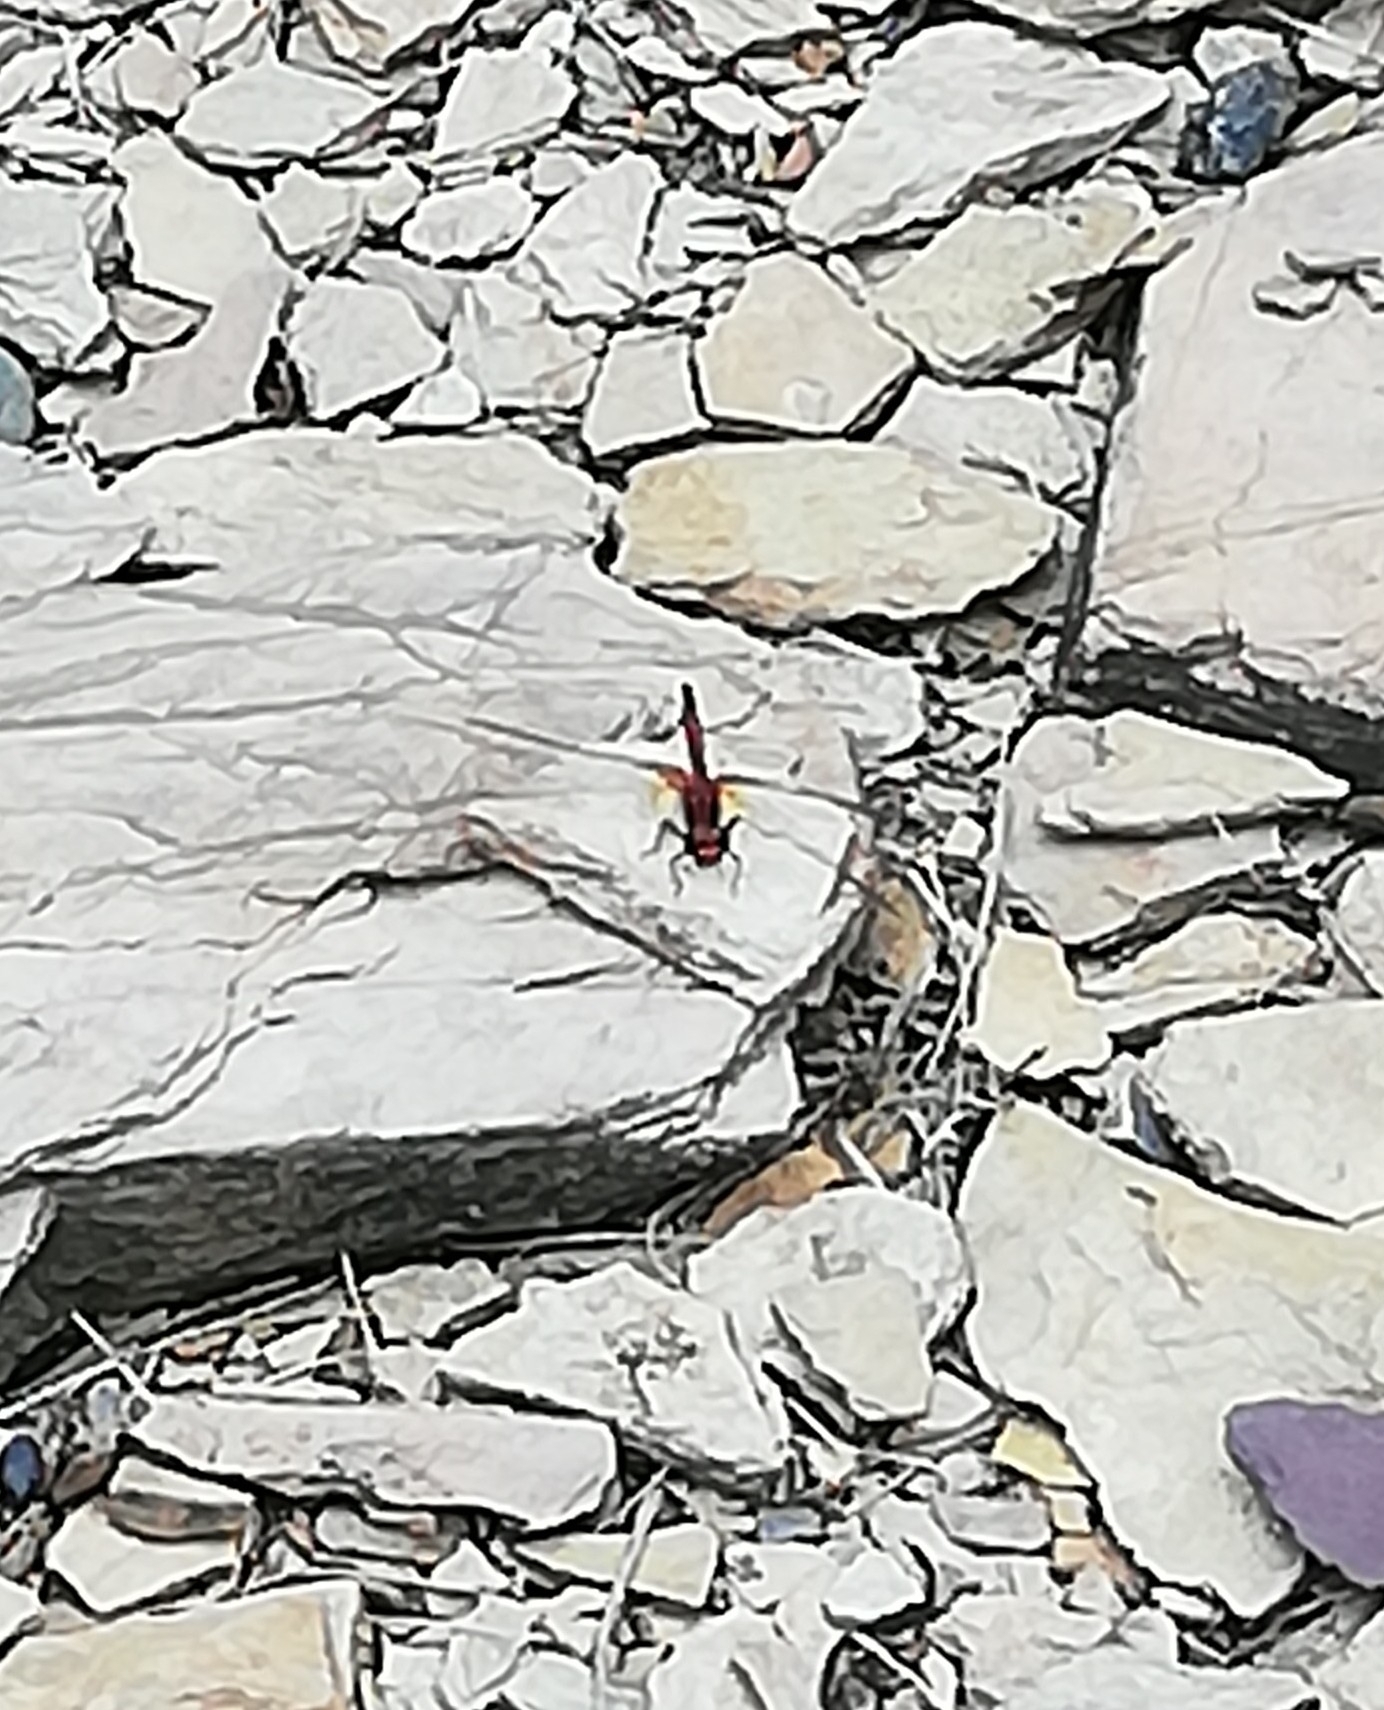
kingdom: Animalia
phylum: Arthropoda
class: Insecta
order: Odonata
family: Libellulidae
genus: Sympetrum
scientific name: Sympetrum flaveolum
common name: Yellow-winged darter
